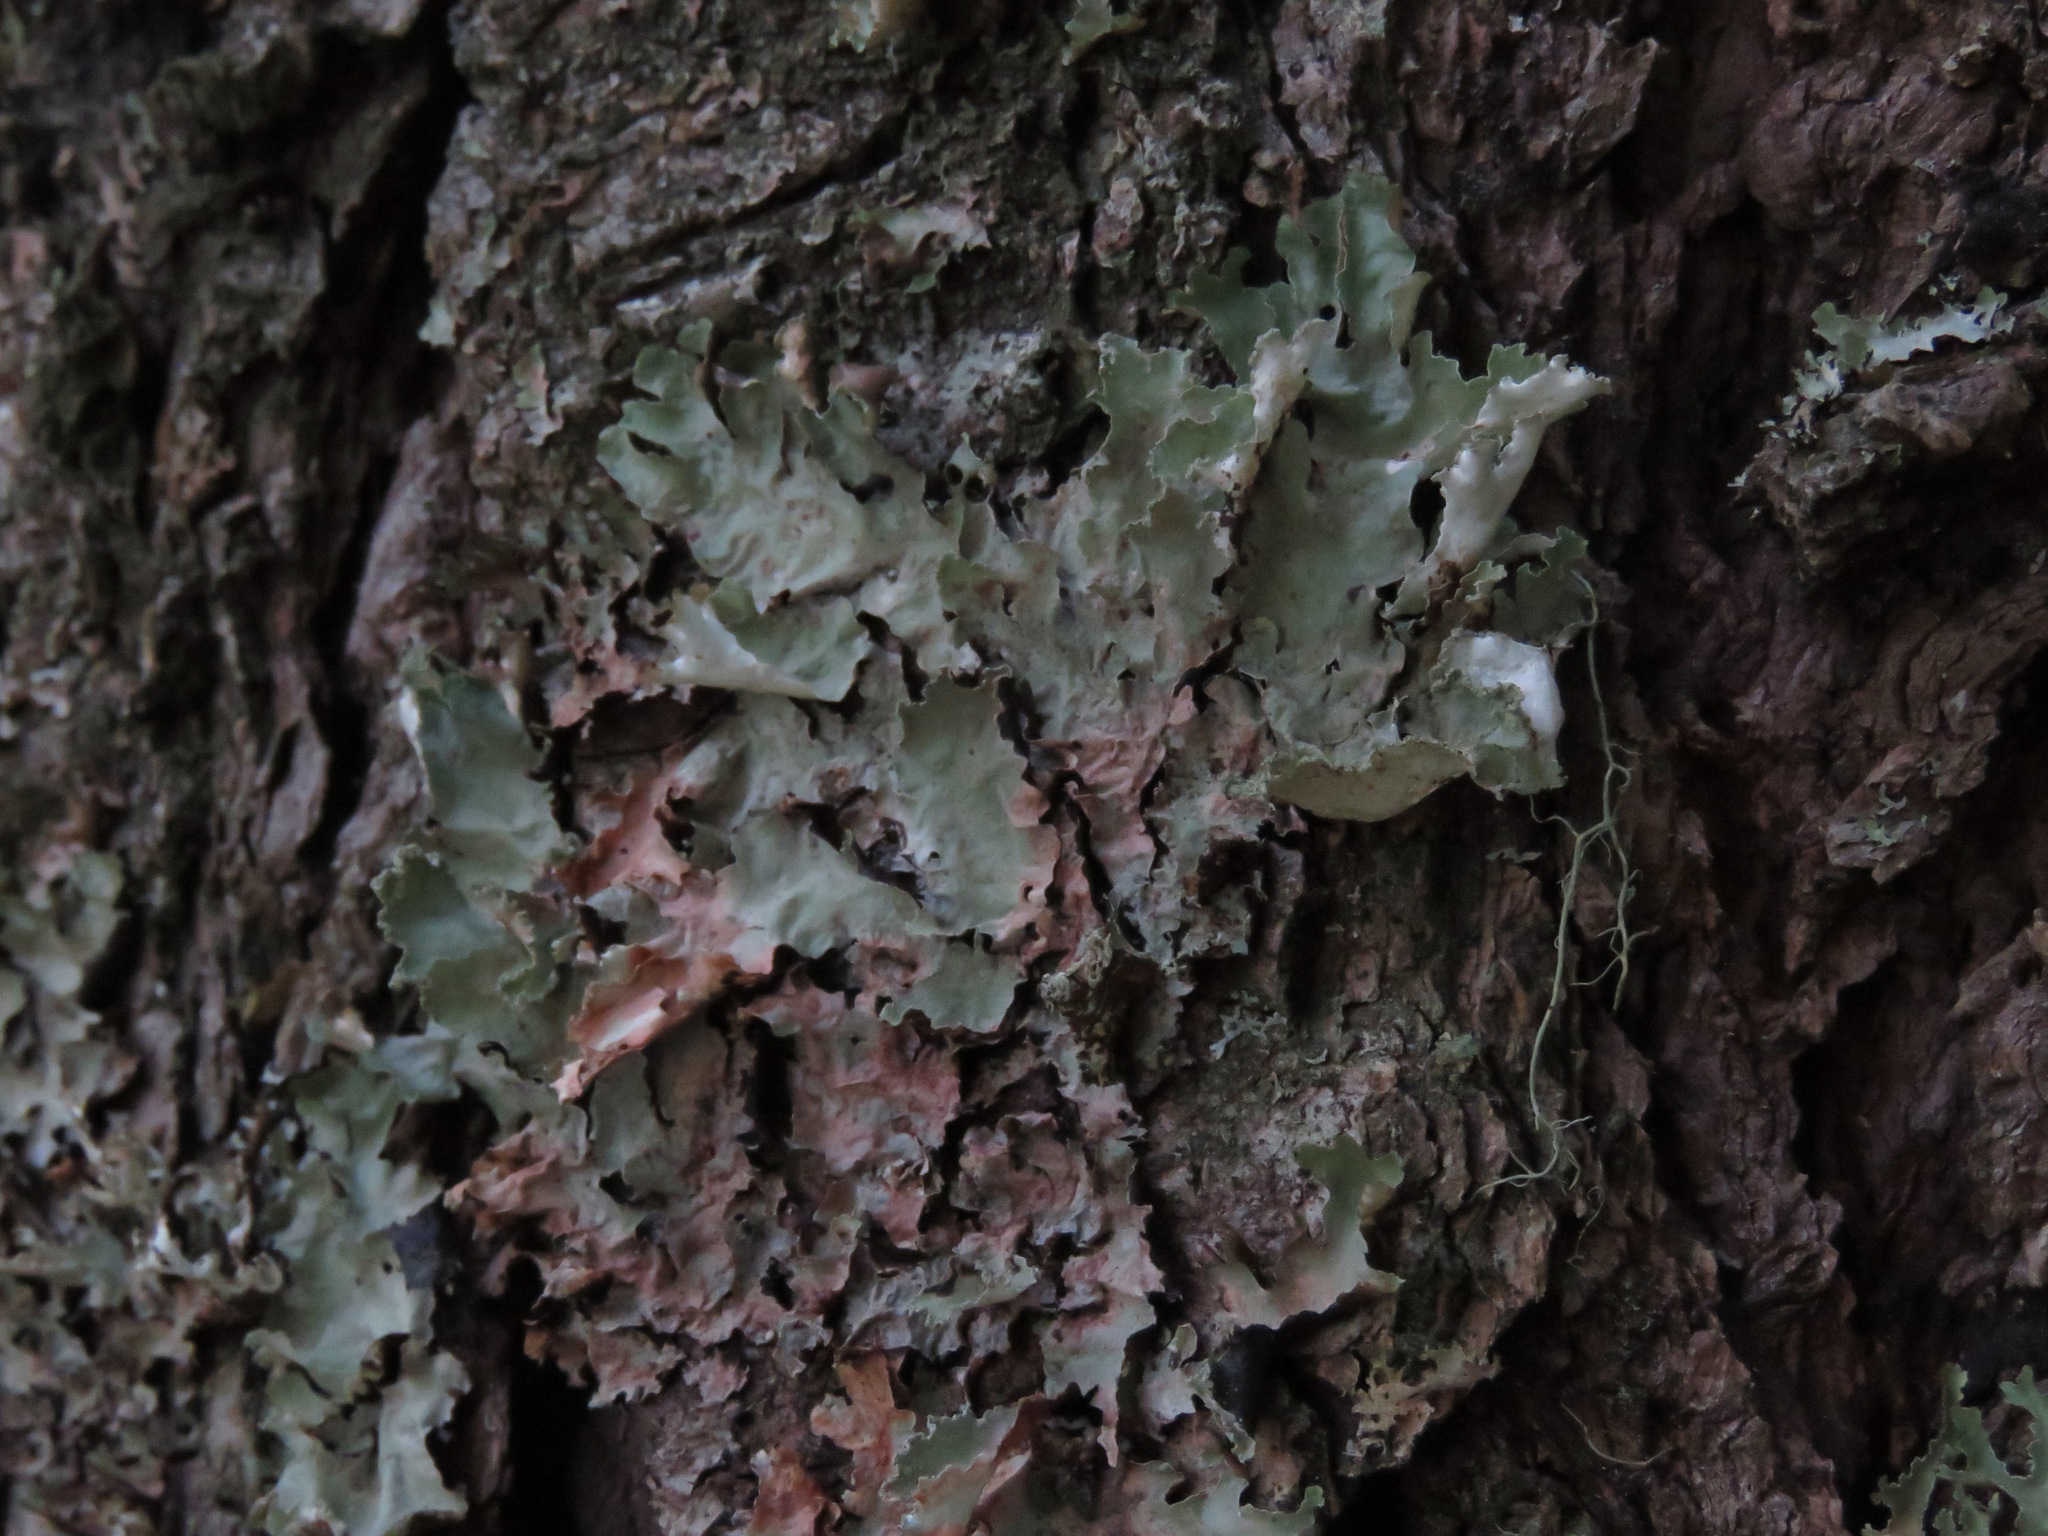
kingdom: Fungi
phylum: Ascomycota
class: Lecanoromycetes
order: Lecanorales
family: Parmeliaceae
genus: Platismatia
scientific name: Platismatia glauca
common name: Varied rag lichen
